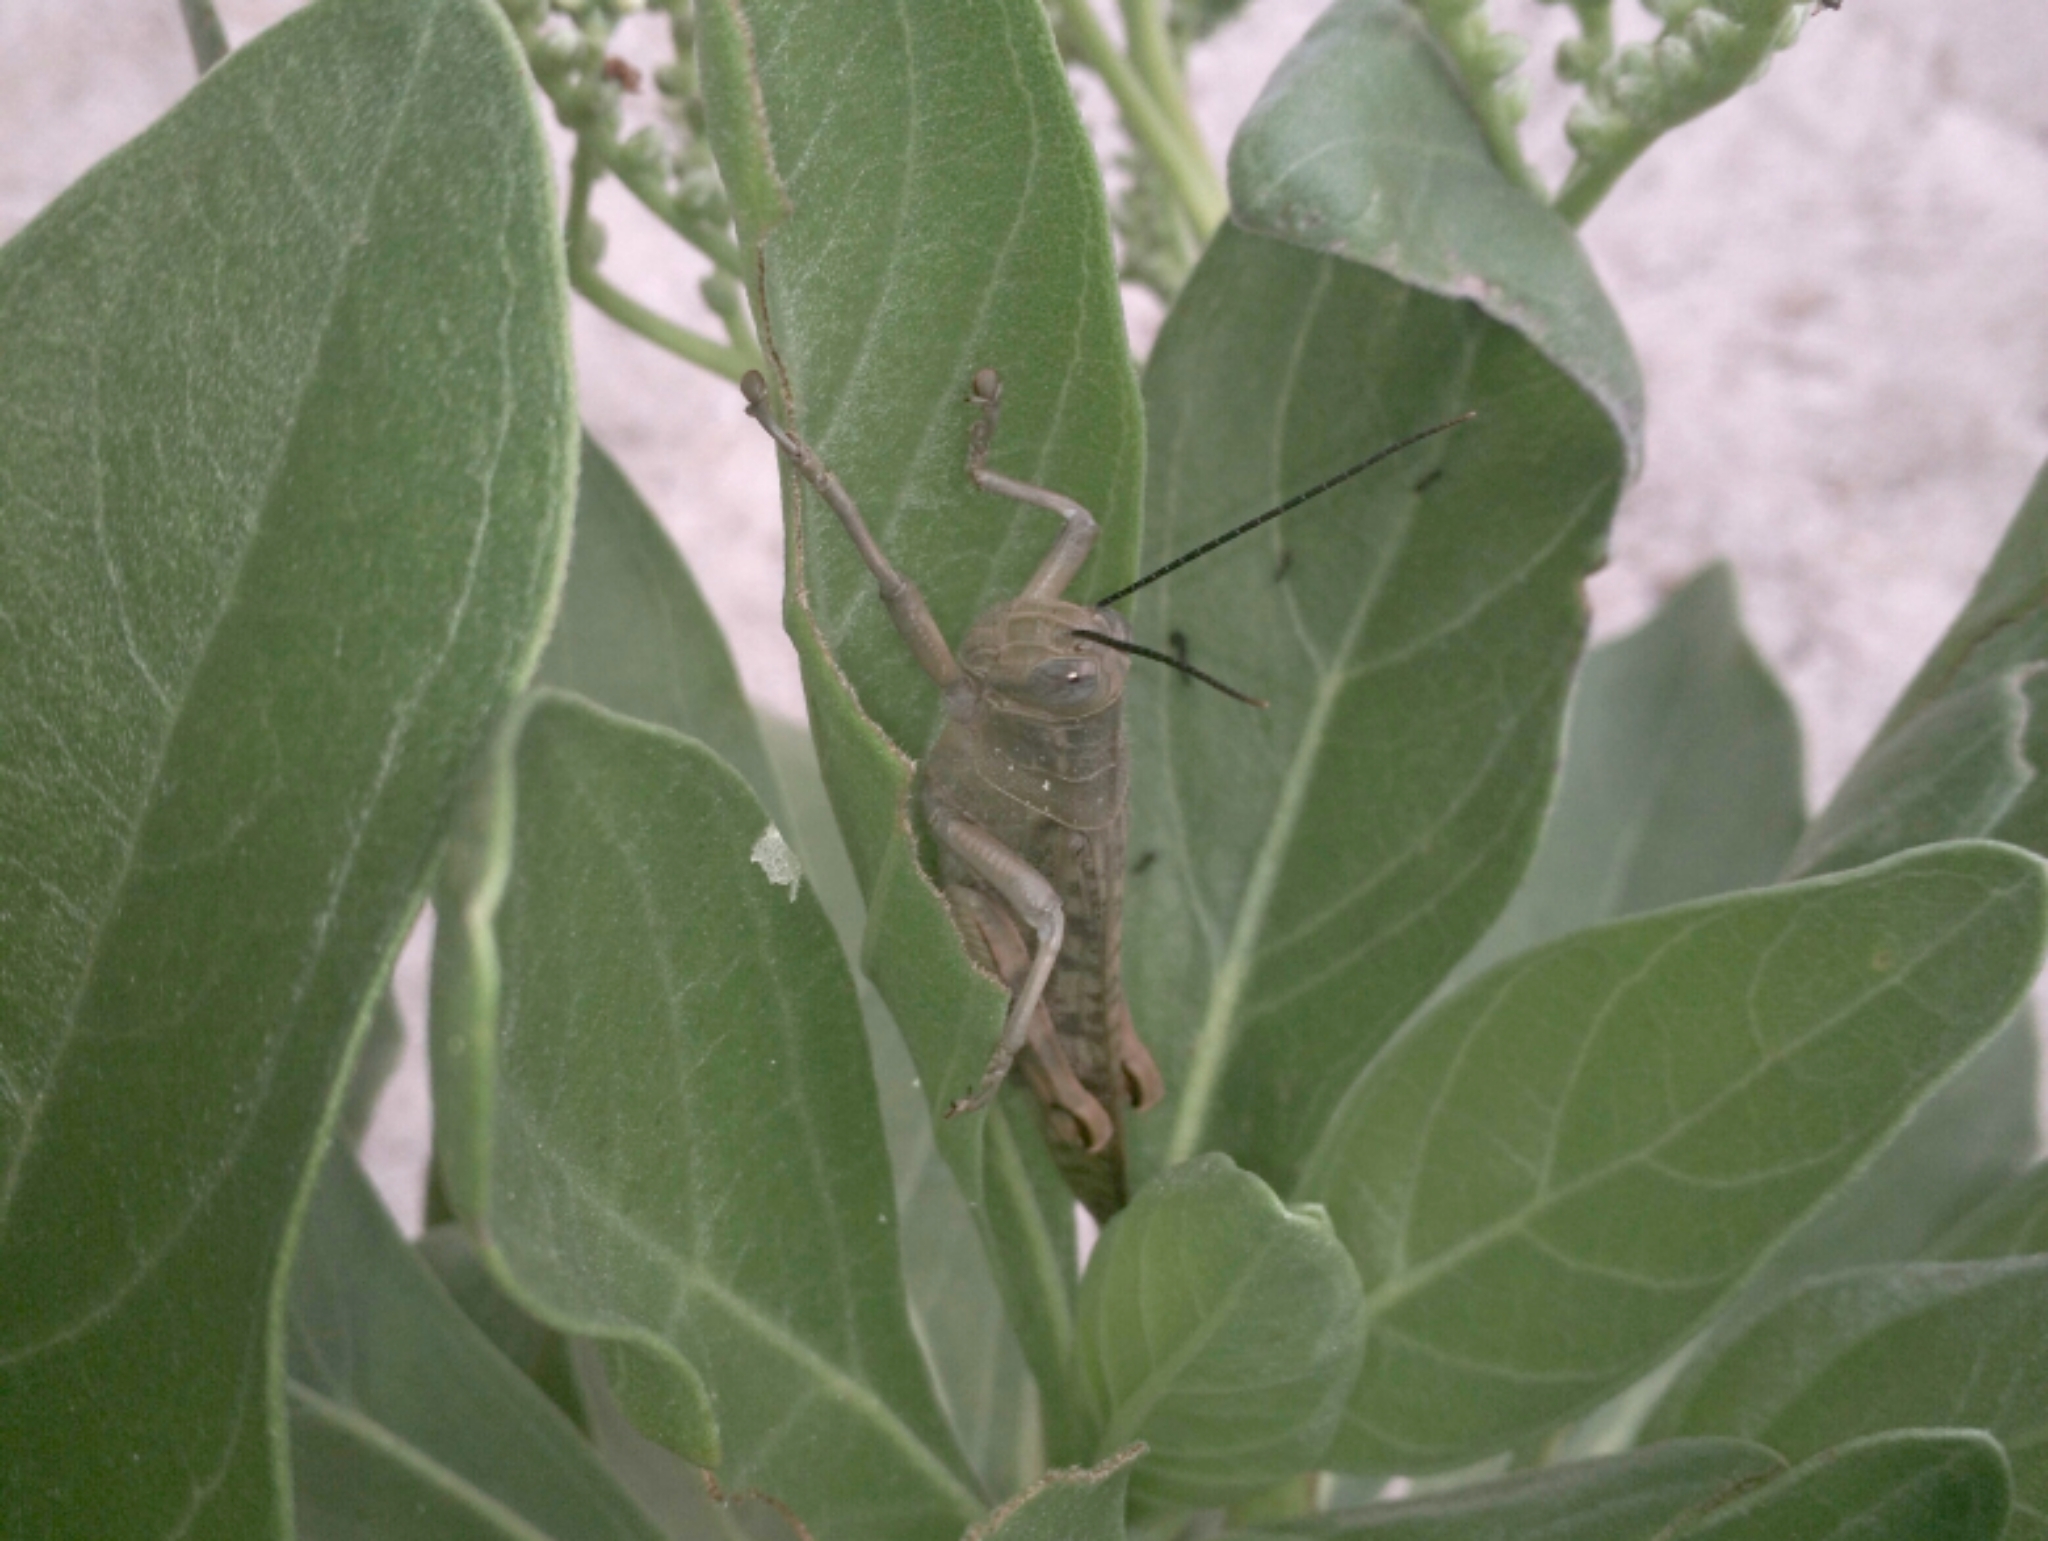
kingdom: Animalia
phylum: Arthropoda
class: Insecta
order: Orthoptera
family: Acrididae
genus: Valanga
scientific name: Valanga irregularis
